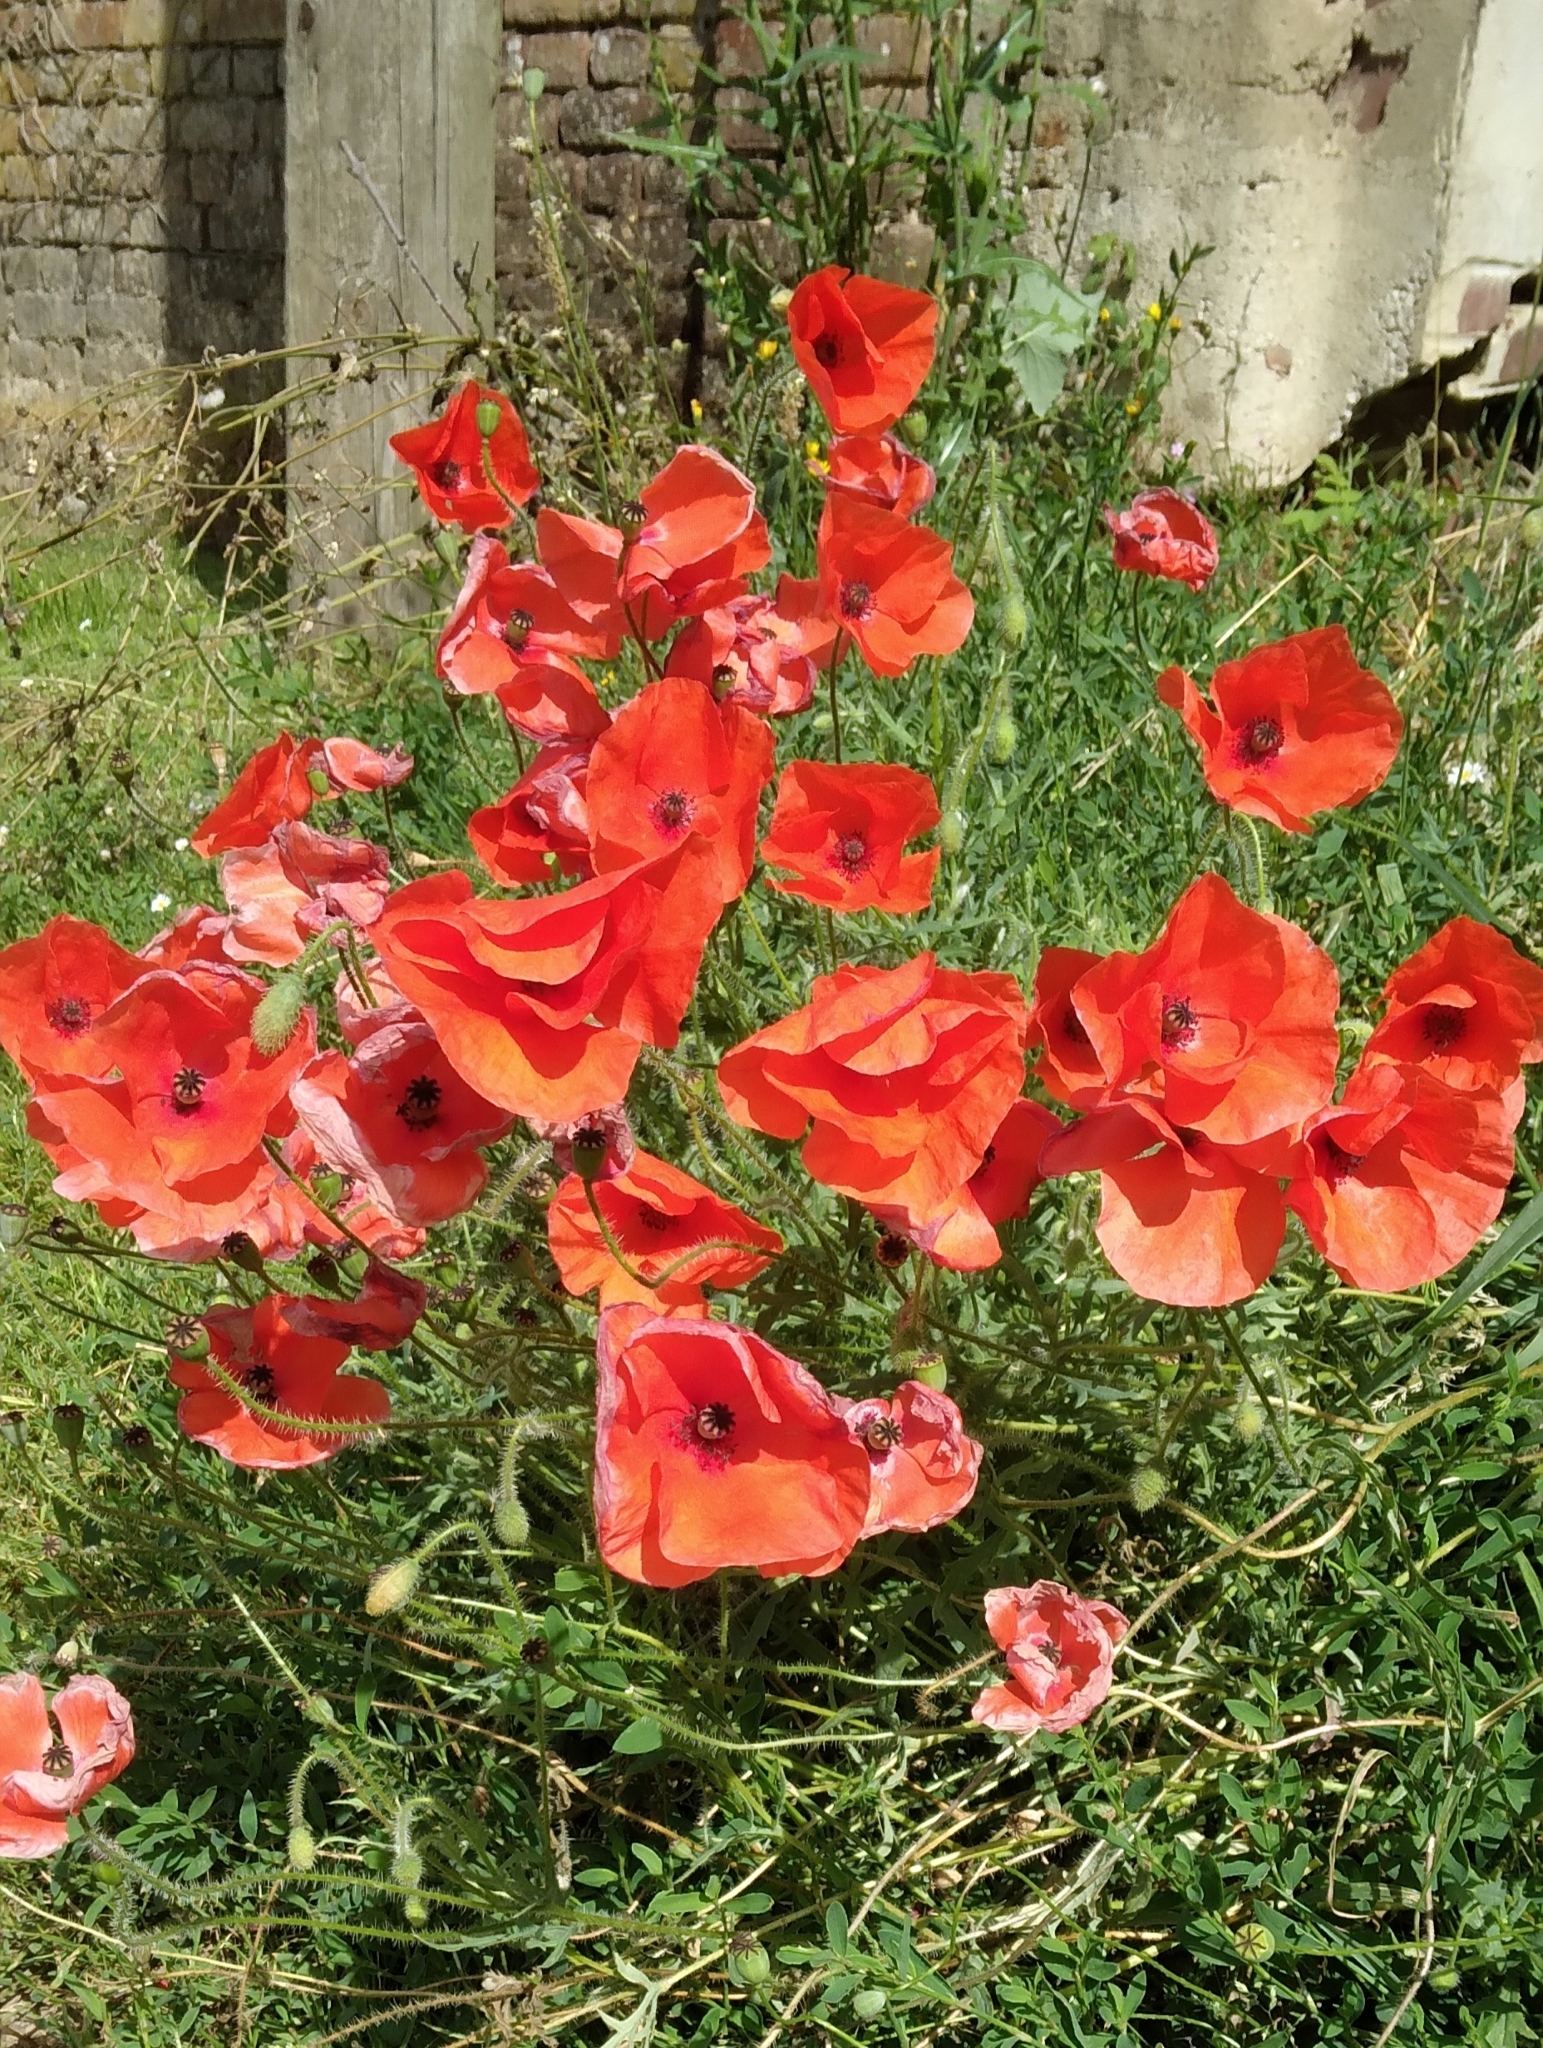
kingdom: Plantae
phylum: Tracheophyta
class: Magnoliopsida
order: Ranunculales
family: Papaveraceae
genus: Papaver
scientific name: Papaver rhoeas
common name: Corn poppy
